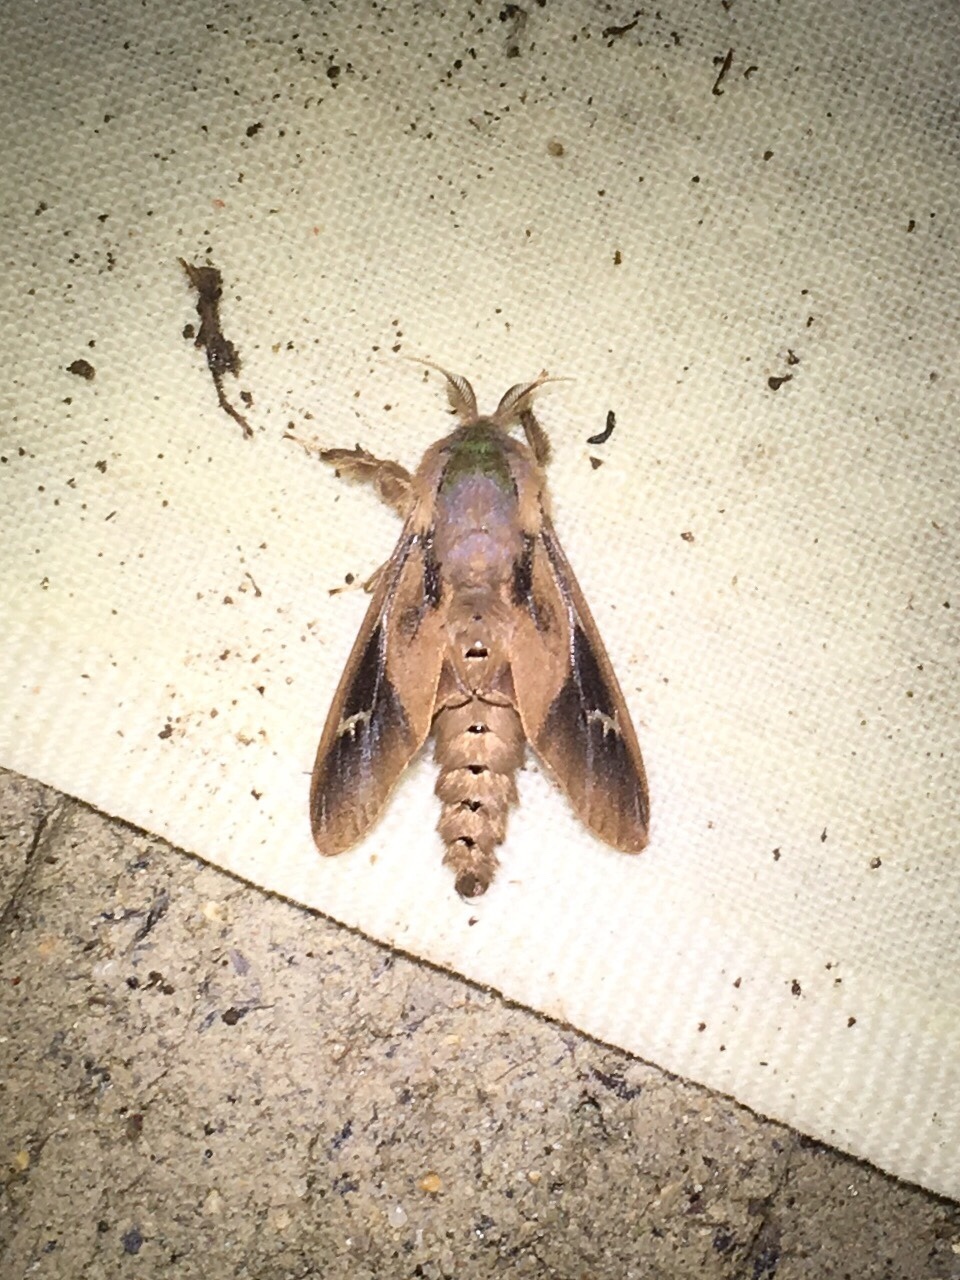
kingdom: Animalia
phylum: Arthropoda
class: Insecta
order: Lepidoptera
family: Psychidae
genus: Oiketicus
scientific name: Oiketicus
